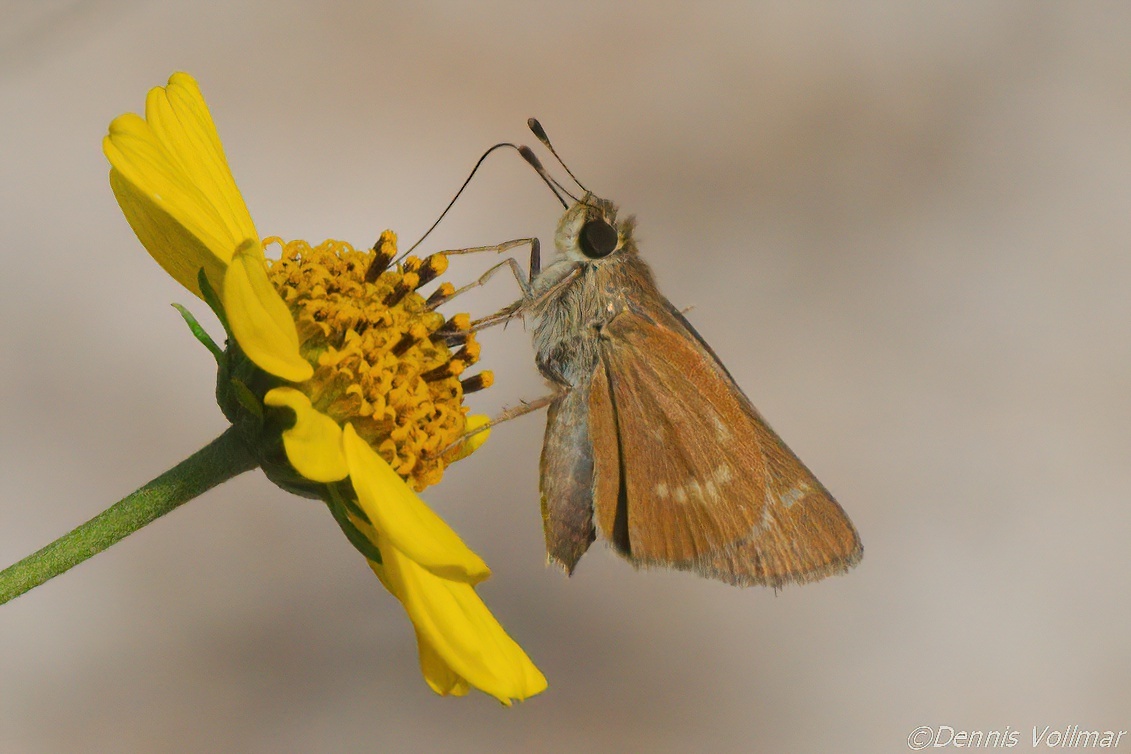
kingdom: Animalia
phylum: Arthropoda
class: Insecta
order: Lepidoptera
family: Hesperiidae
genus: Mellana
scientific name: Mellana eulogius
